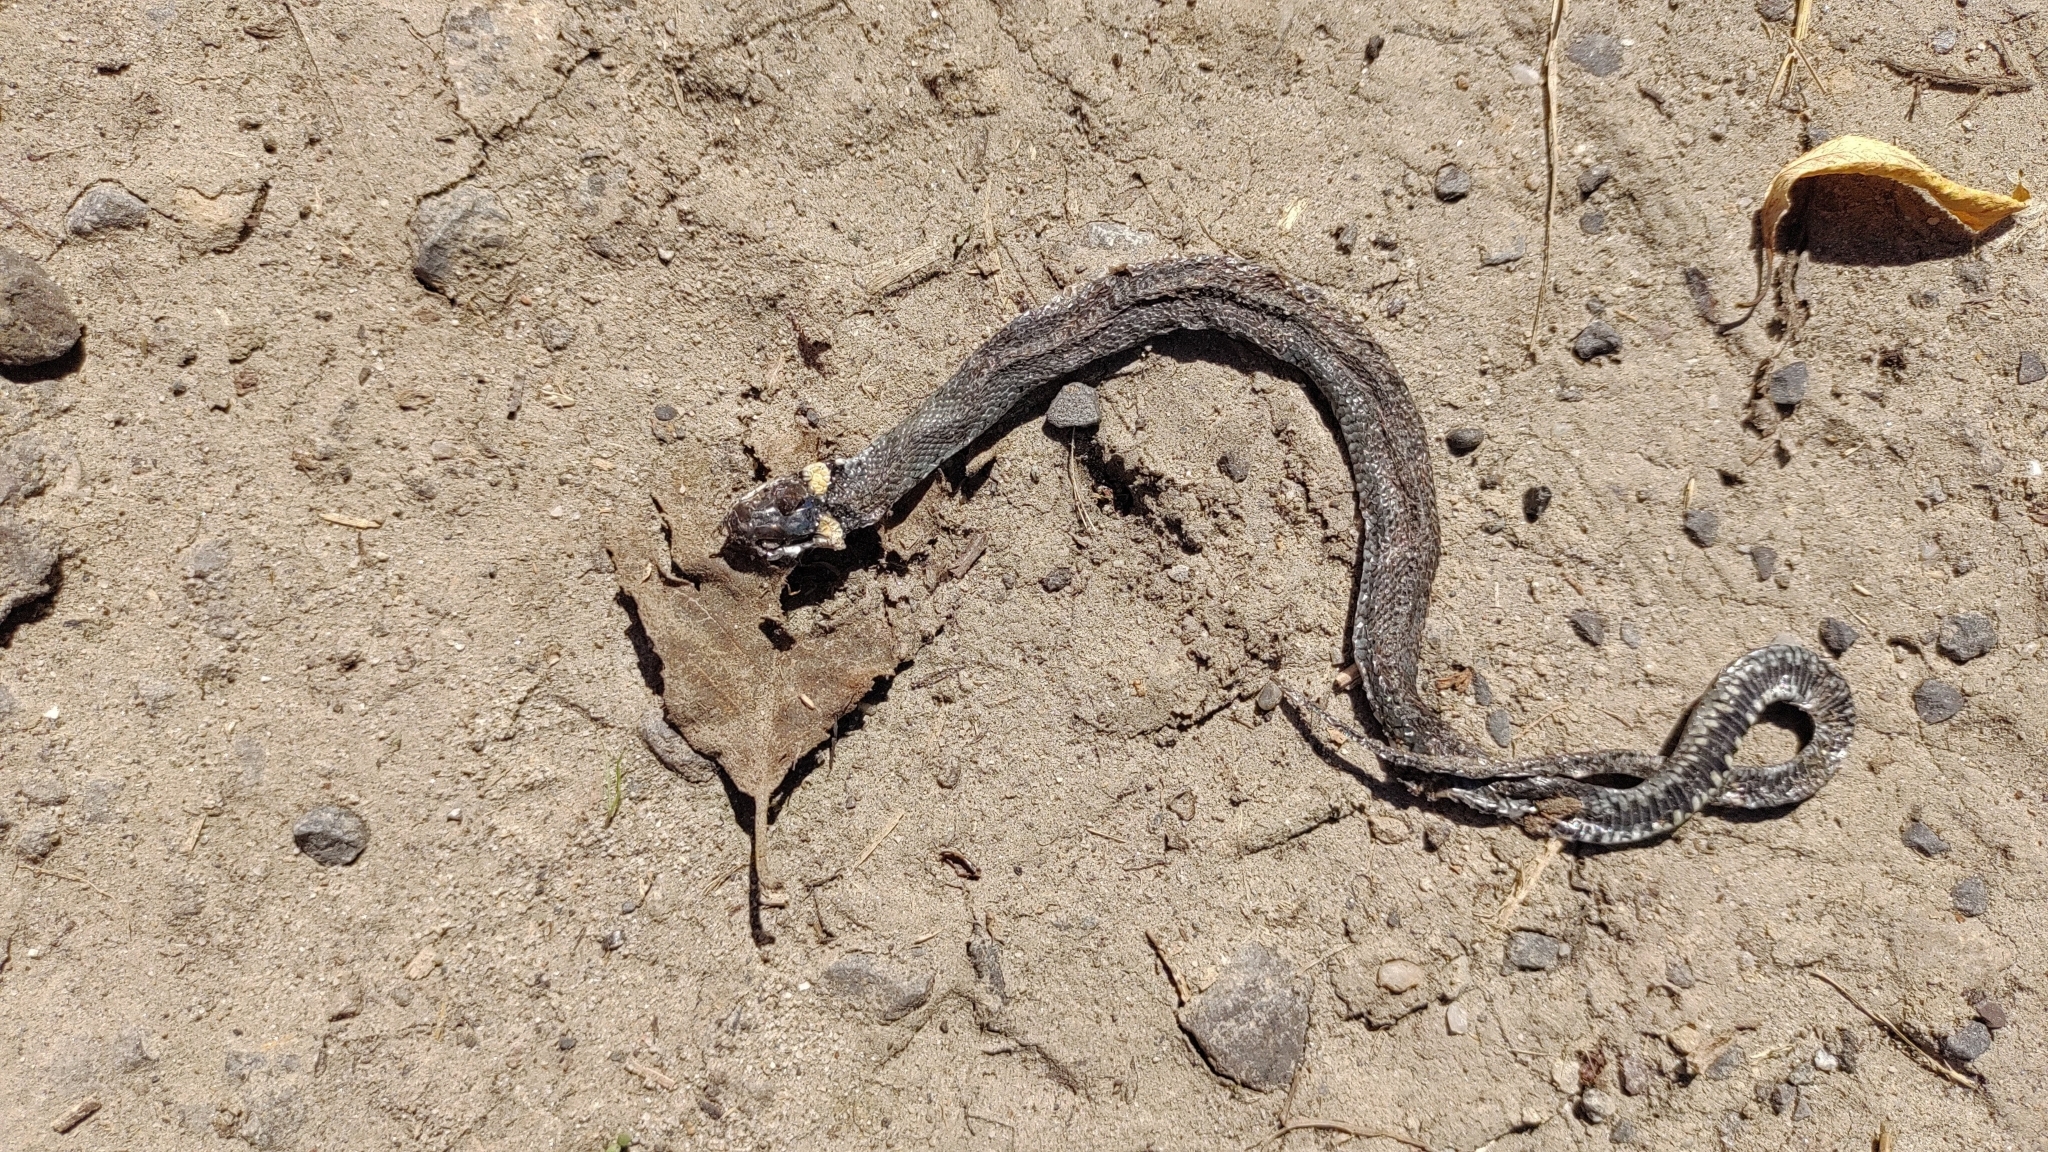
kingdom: Animalia
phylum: Chordata
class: Squamata
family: Colubridae
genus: Natrix
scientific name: Natrix natrix
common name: Grass snake
